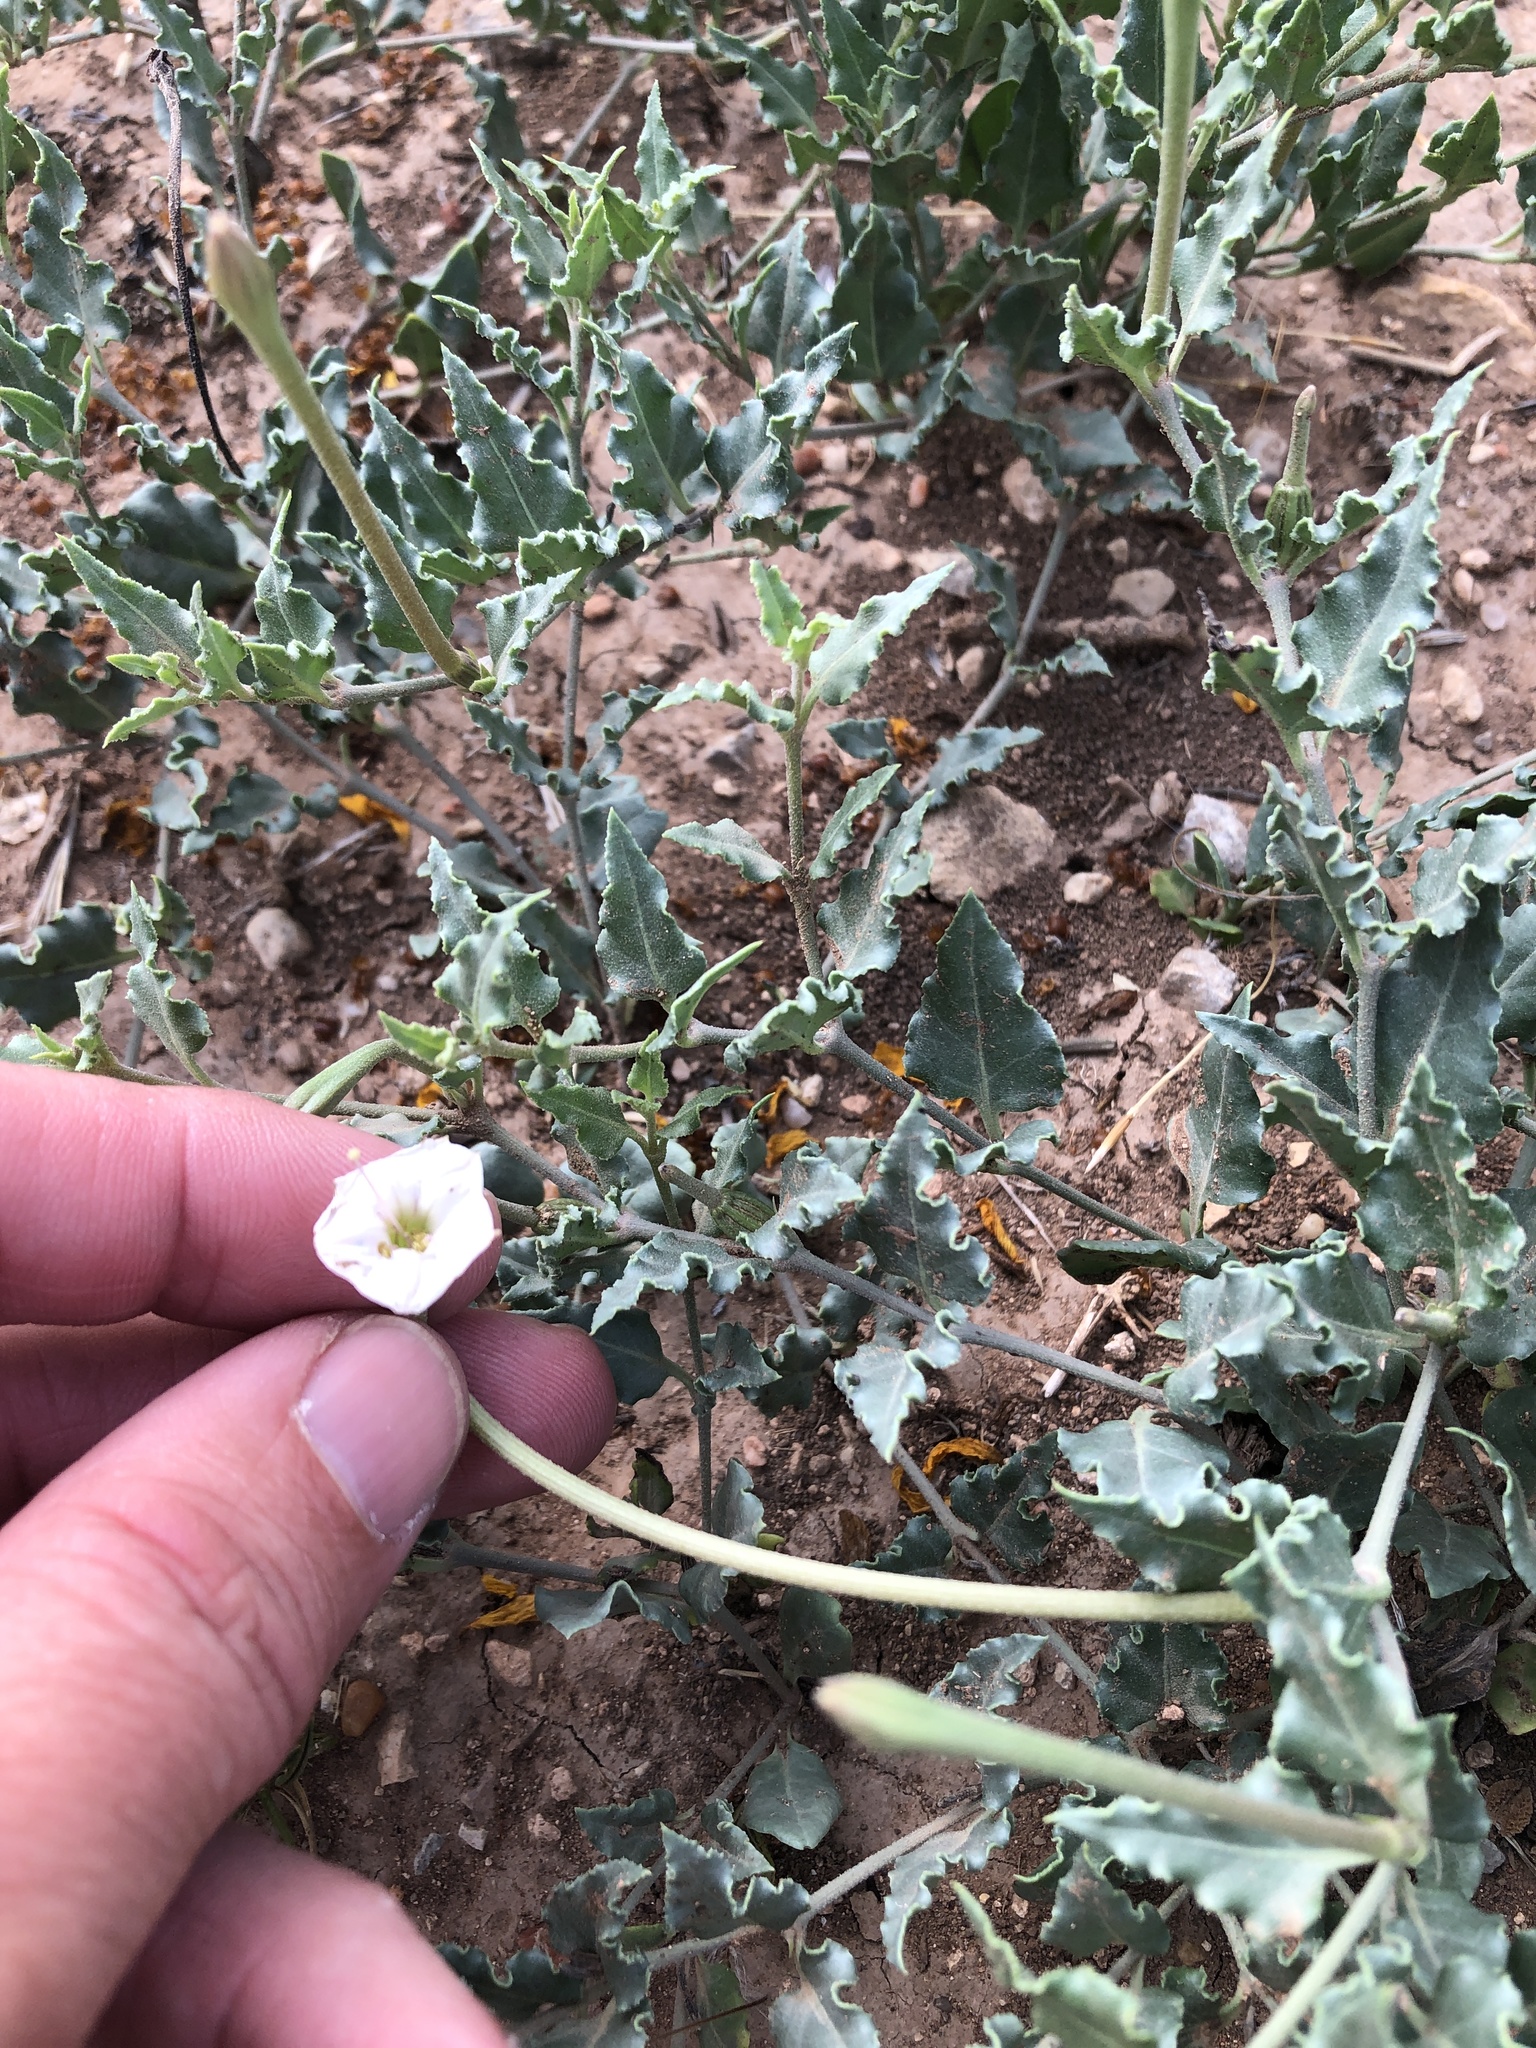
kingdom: Plantae
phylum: Tracheophyta
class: Magnoliopsida
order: Caryophyllales
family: Nyctaginaceae
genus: Acleisanthes
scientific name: Acleisanthes longiflora
